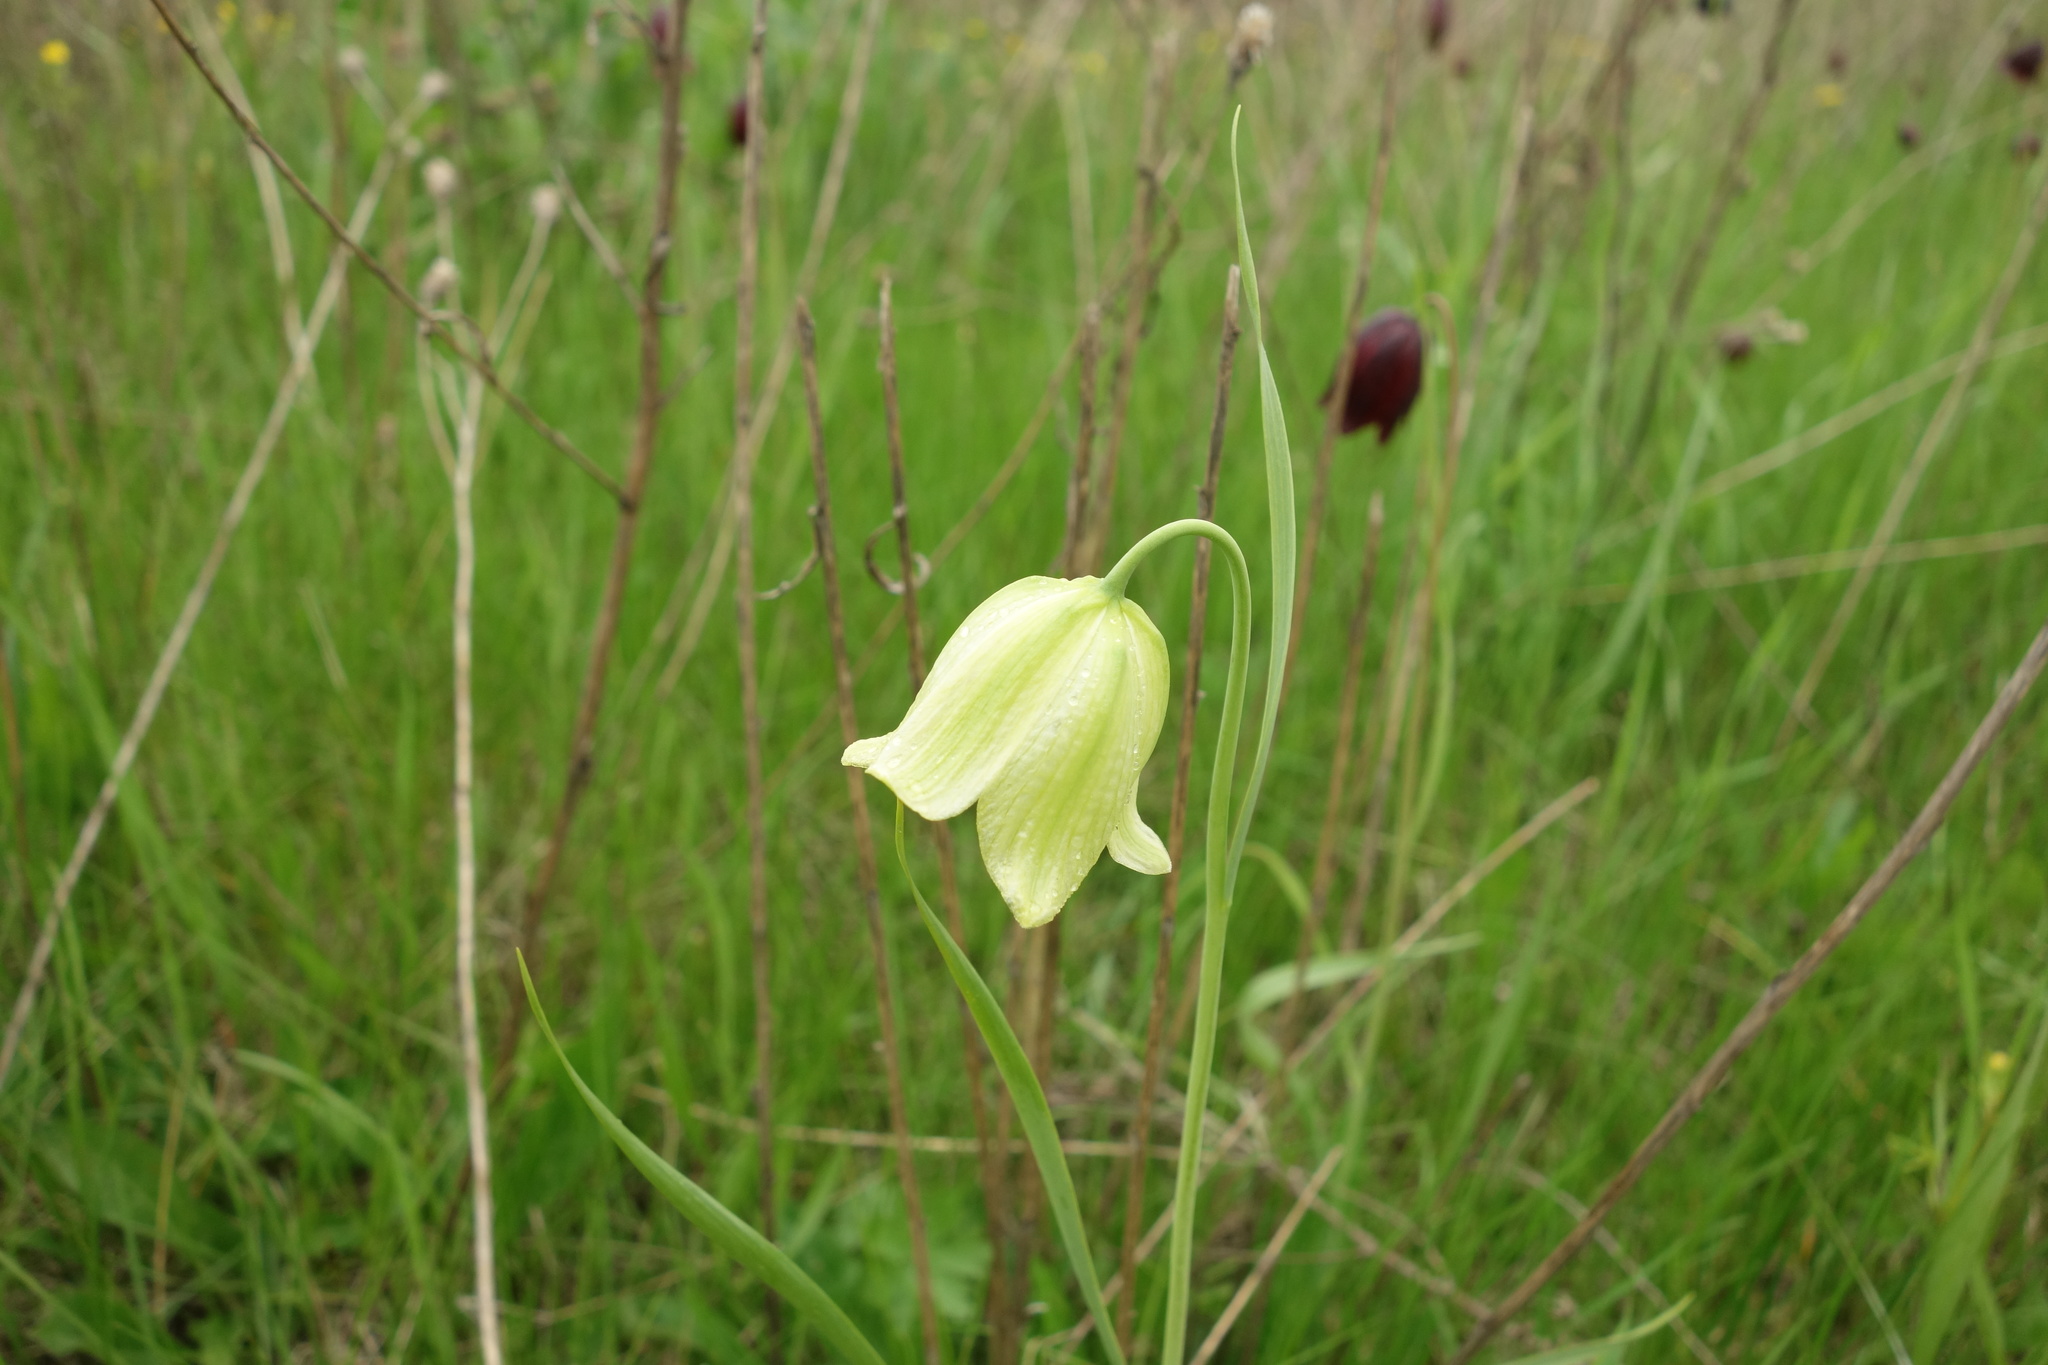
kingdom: Plantae
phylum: Tracheophyta
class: Liliopsida
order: Liliales
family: Liliaceae
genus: Fritillaria
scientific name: Fritillaria meleagroides
